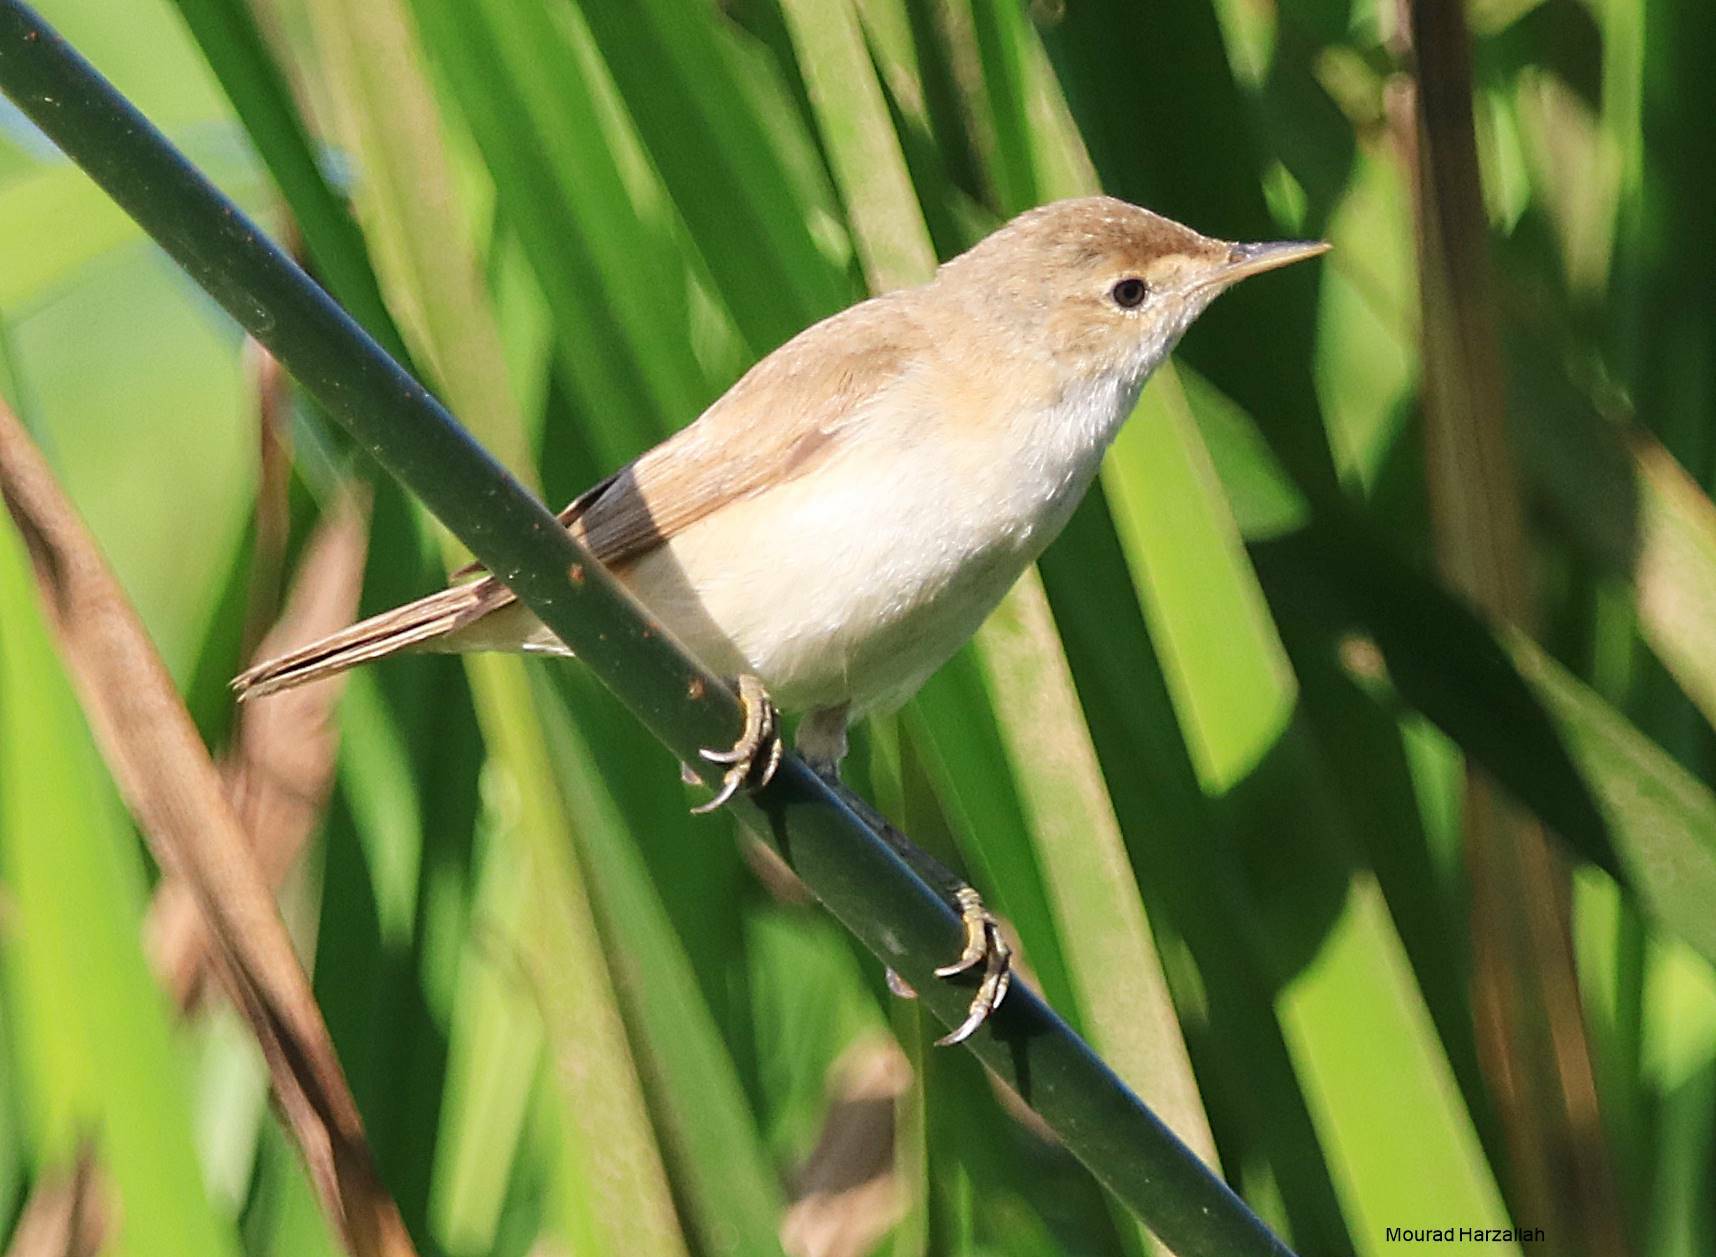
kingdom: Animalia
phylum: Chordata
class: Aves
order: Passeriformes
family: Acrocephalidae
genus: Acrocephalus
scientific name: Acrocephalus scirpaceus
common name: Eurasian reed warbler
